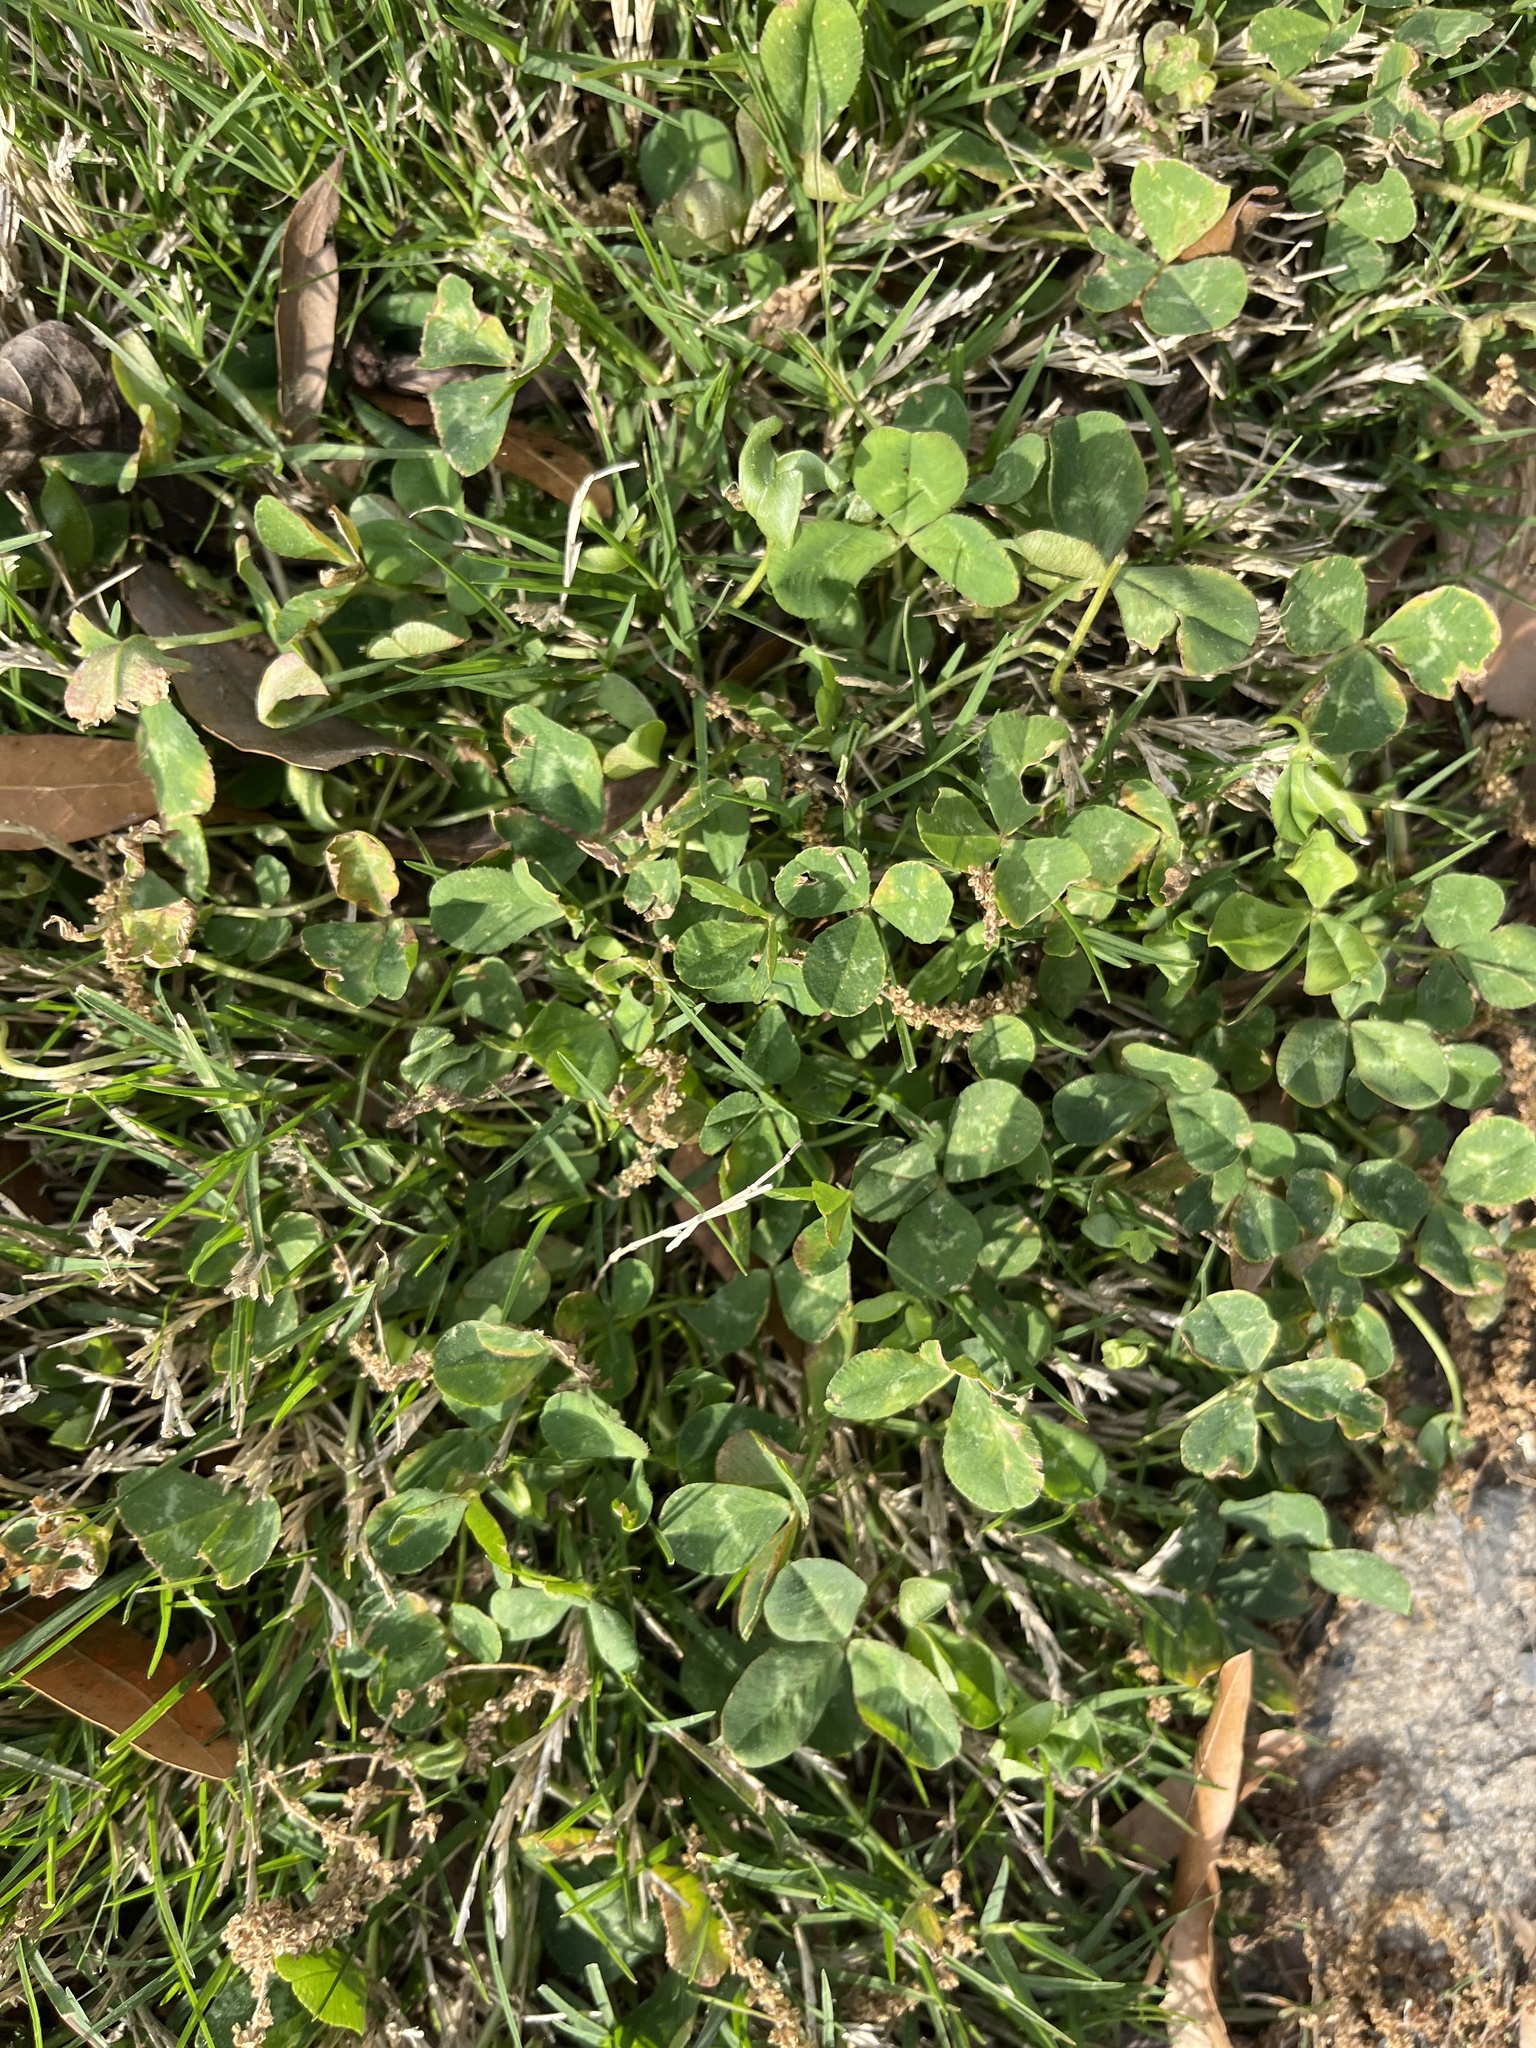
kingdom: Plantae
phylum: Tracheophyta
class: Magnoliopsida
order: Fabales
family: Fabaceae
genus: Trifolium
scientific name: Trifolium repens
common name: White clover
